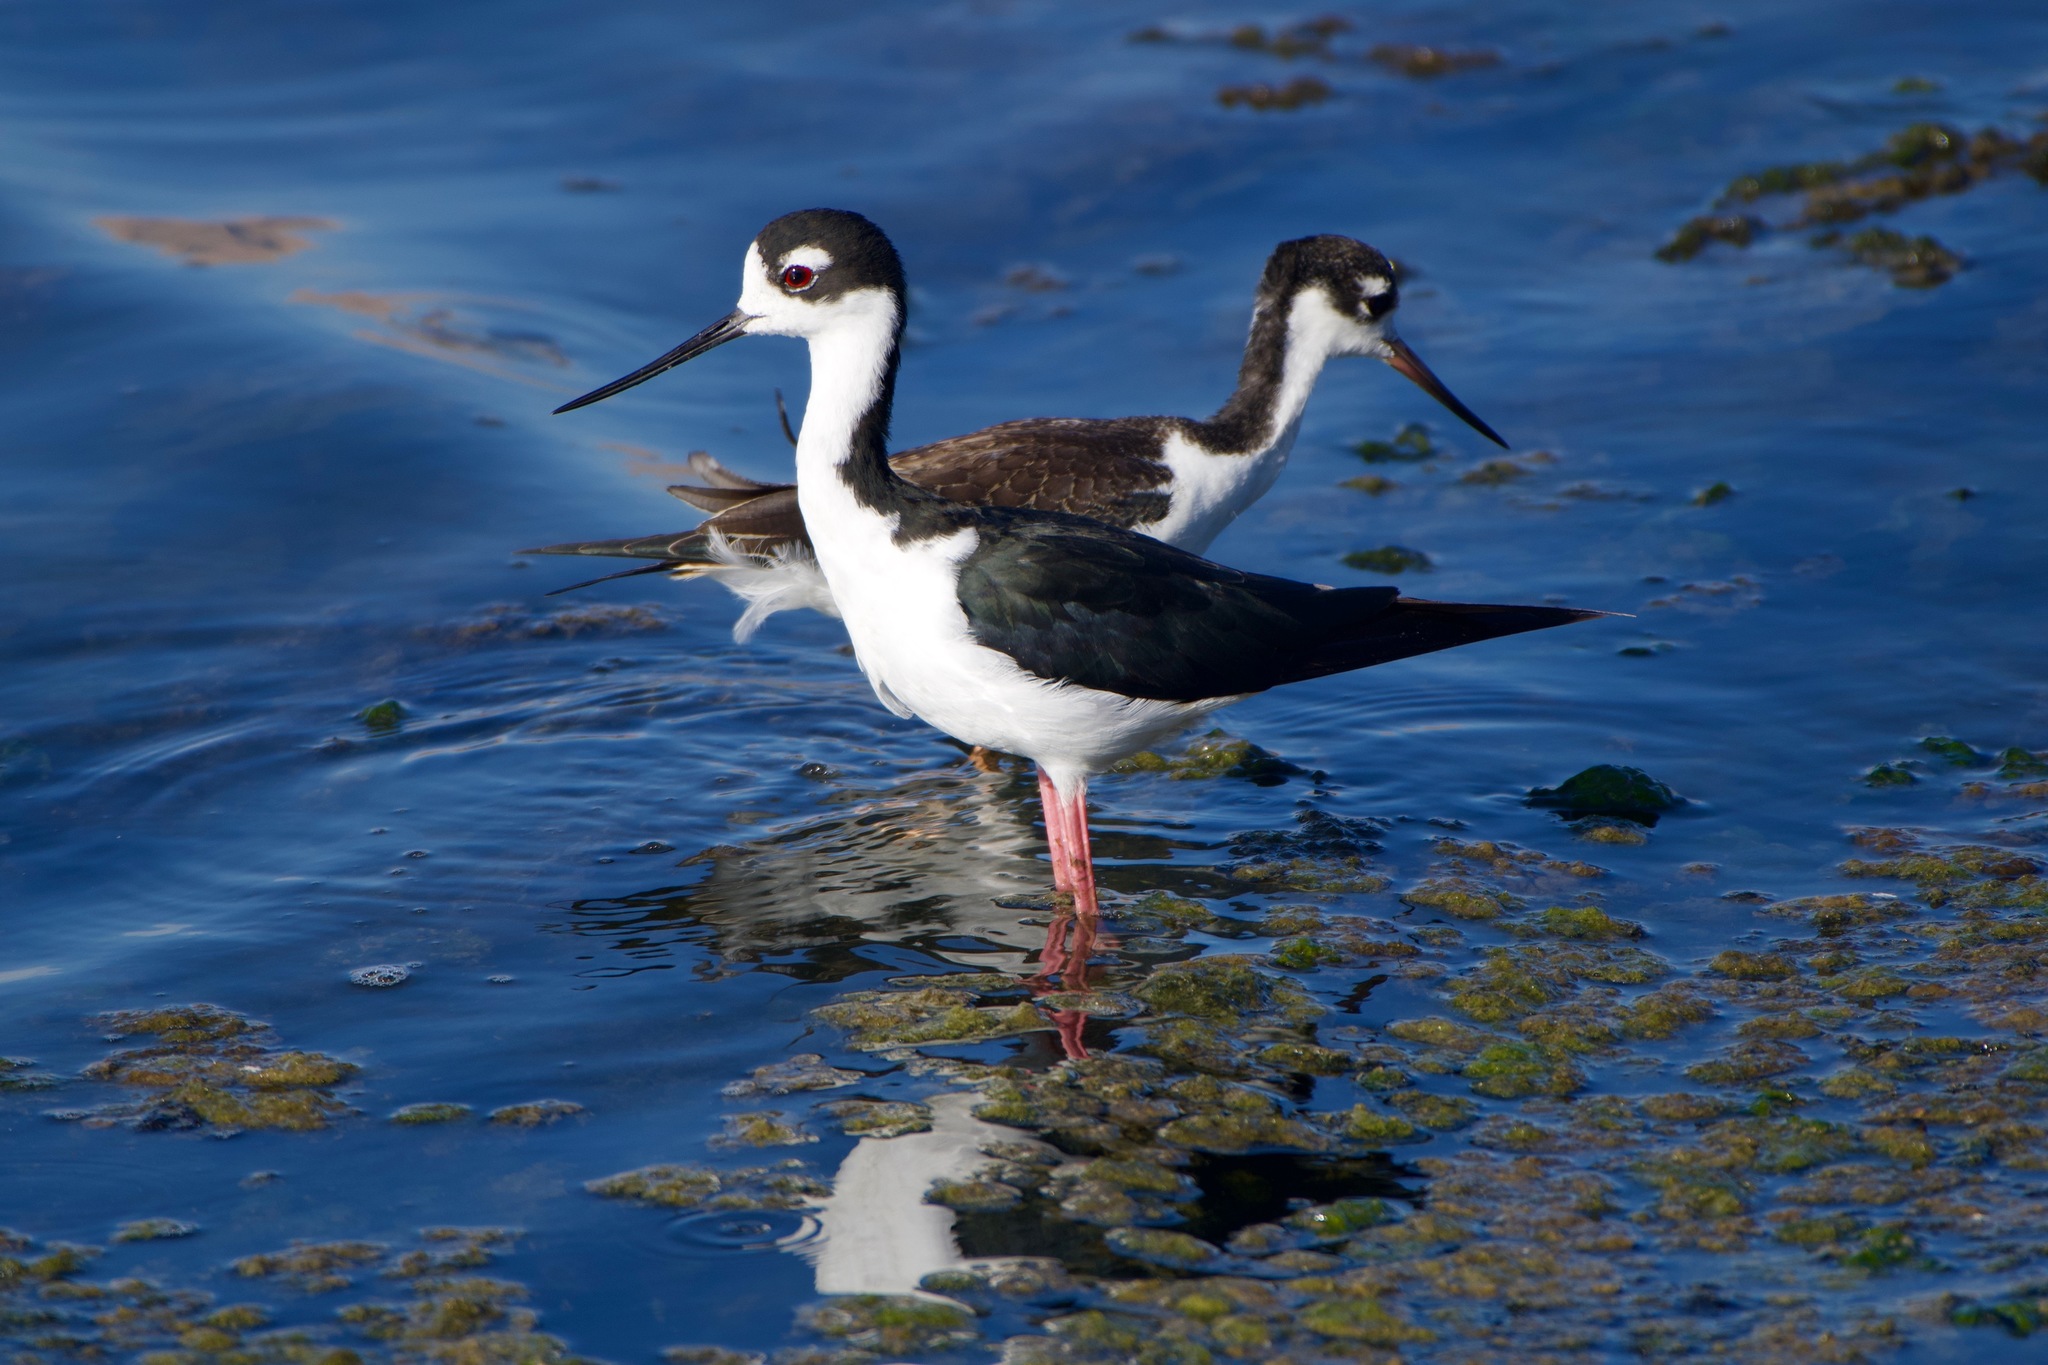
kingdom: Animalia
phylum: Chordata
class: Aves
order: Charadriiformes
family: Recurvirostridae
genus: Himantopus
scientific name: Himantopus mexicanus
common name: Black-necked stilt
